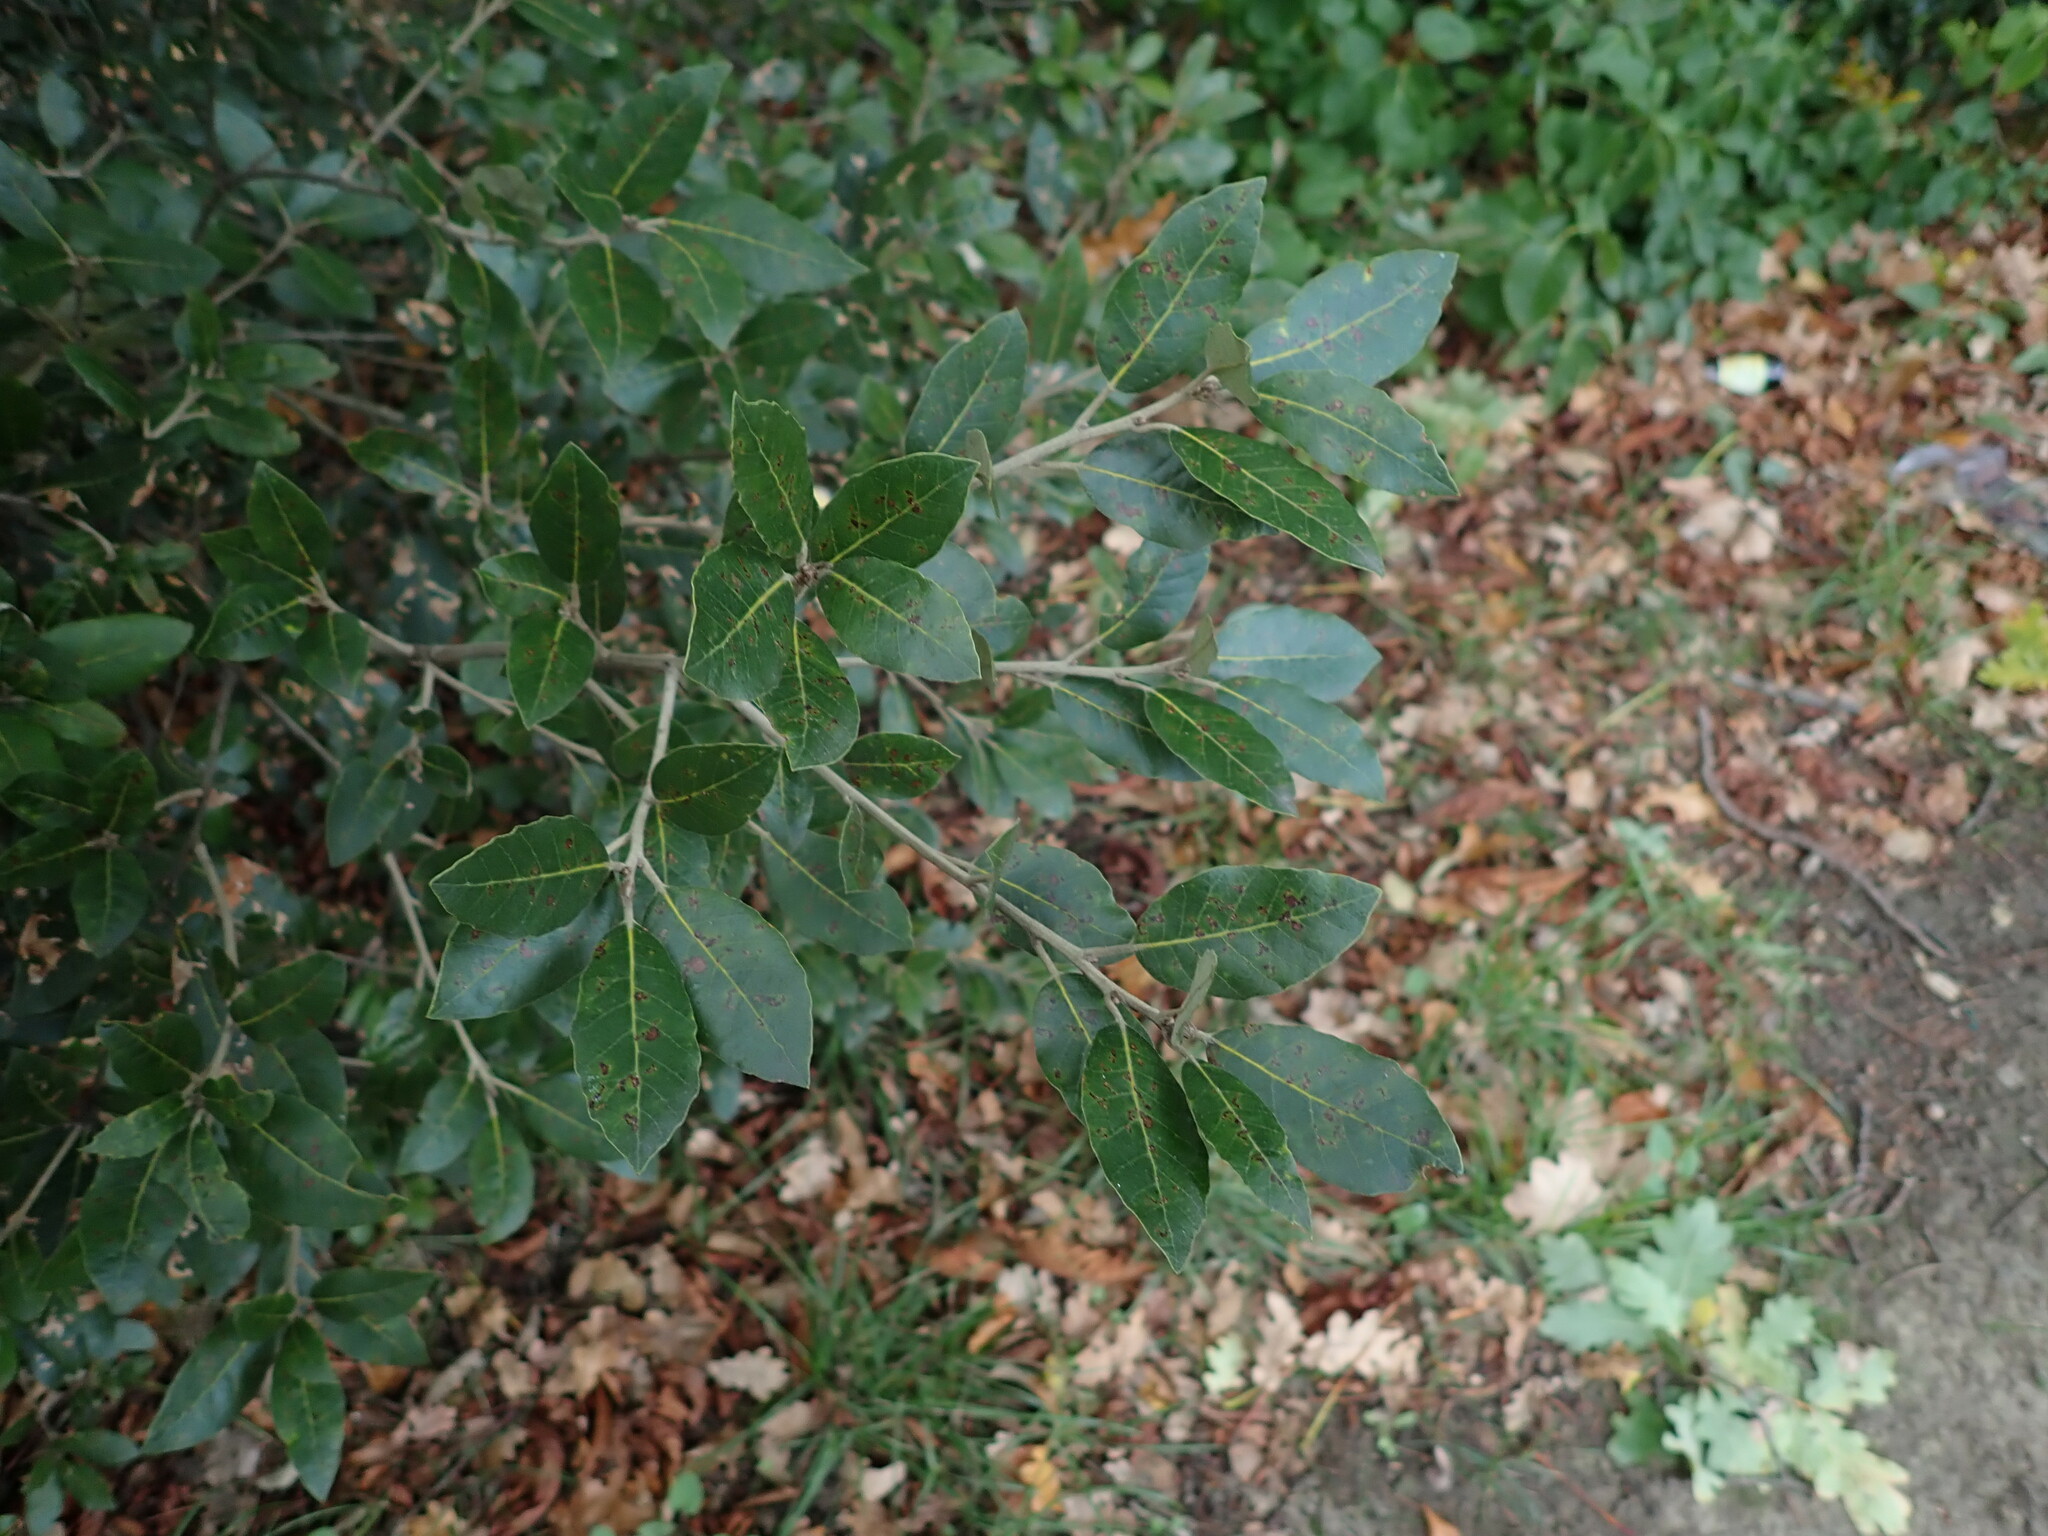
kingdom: Plantae
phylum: Tracheophyta
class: Magnoliopsida
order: Fagales
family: Fagaceae
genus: Quercus
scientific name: Quercus ilex
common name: Evergreen oak
